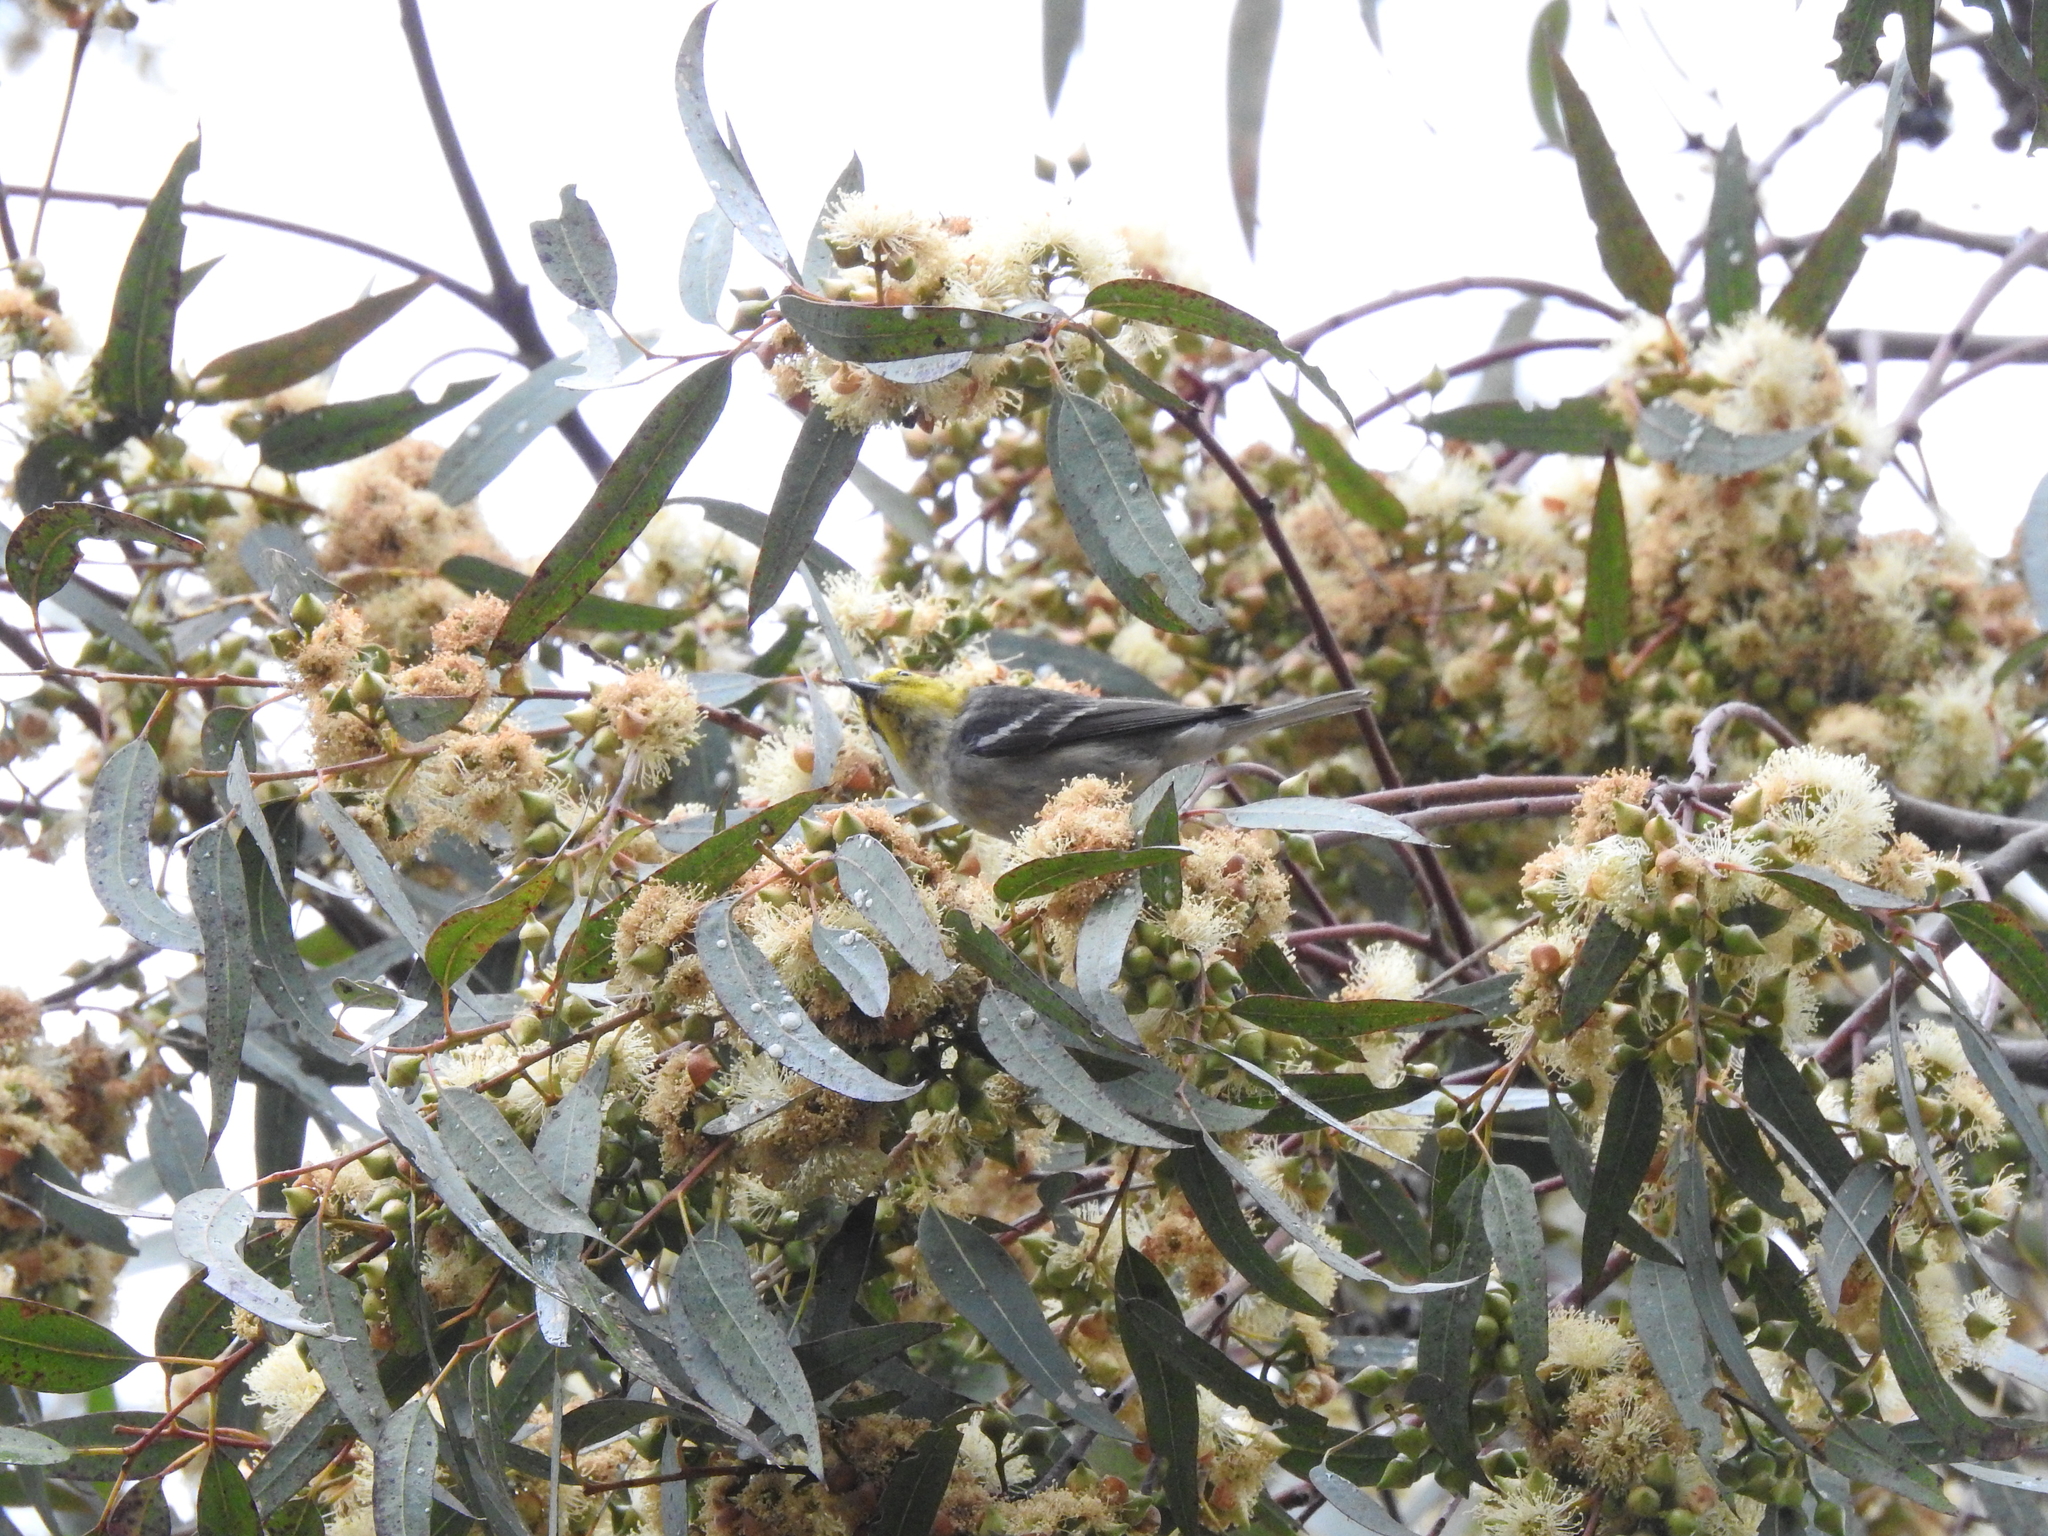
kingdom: Animalia
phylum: Chordata
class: Aves
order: Passeriformes
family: Parulidae
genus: Setophaga
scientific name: Setophaga occidentalis
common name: Hermit warbler
